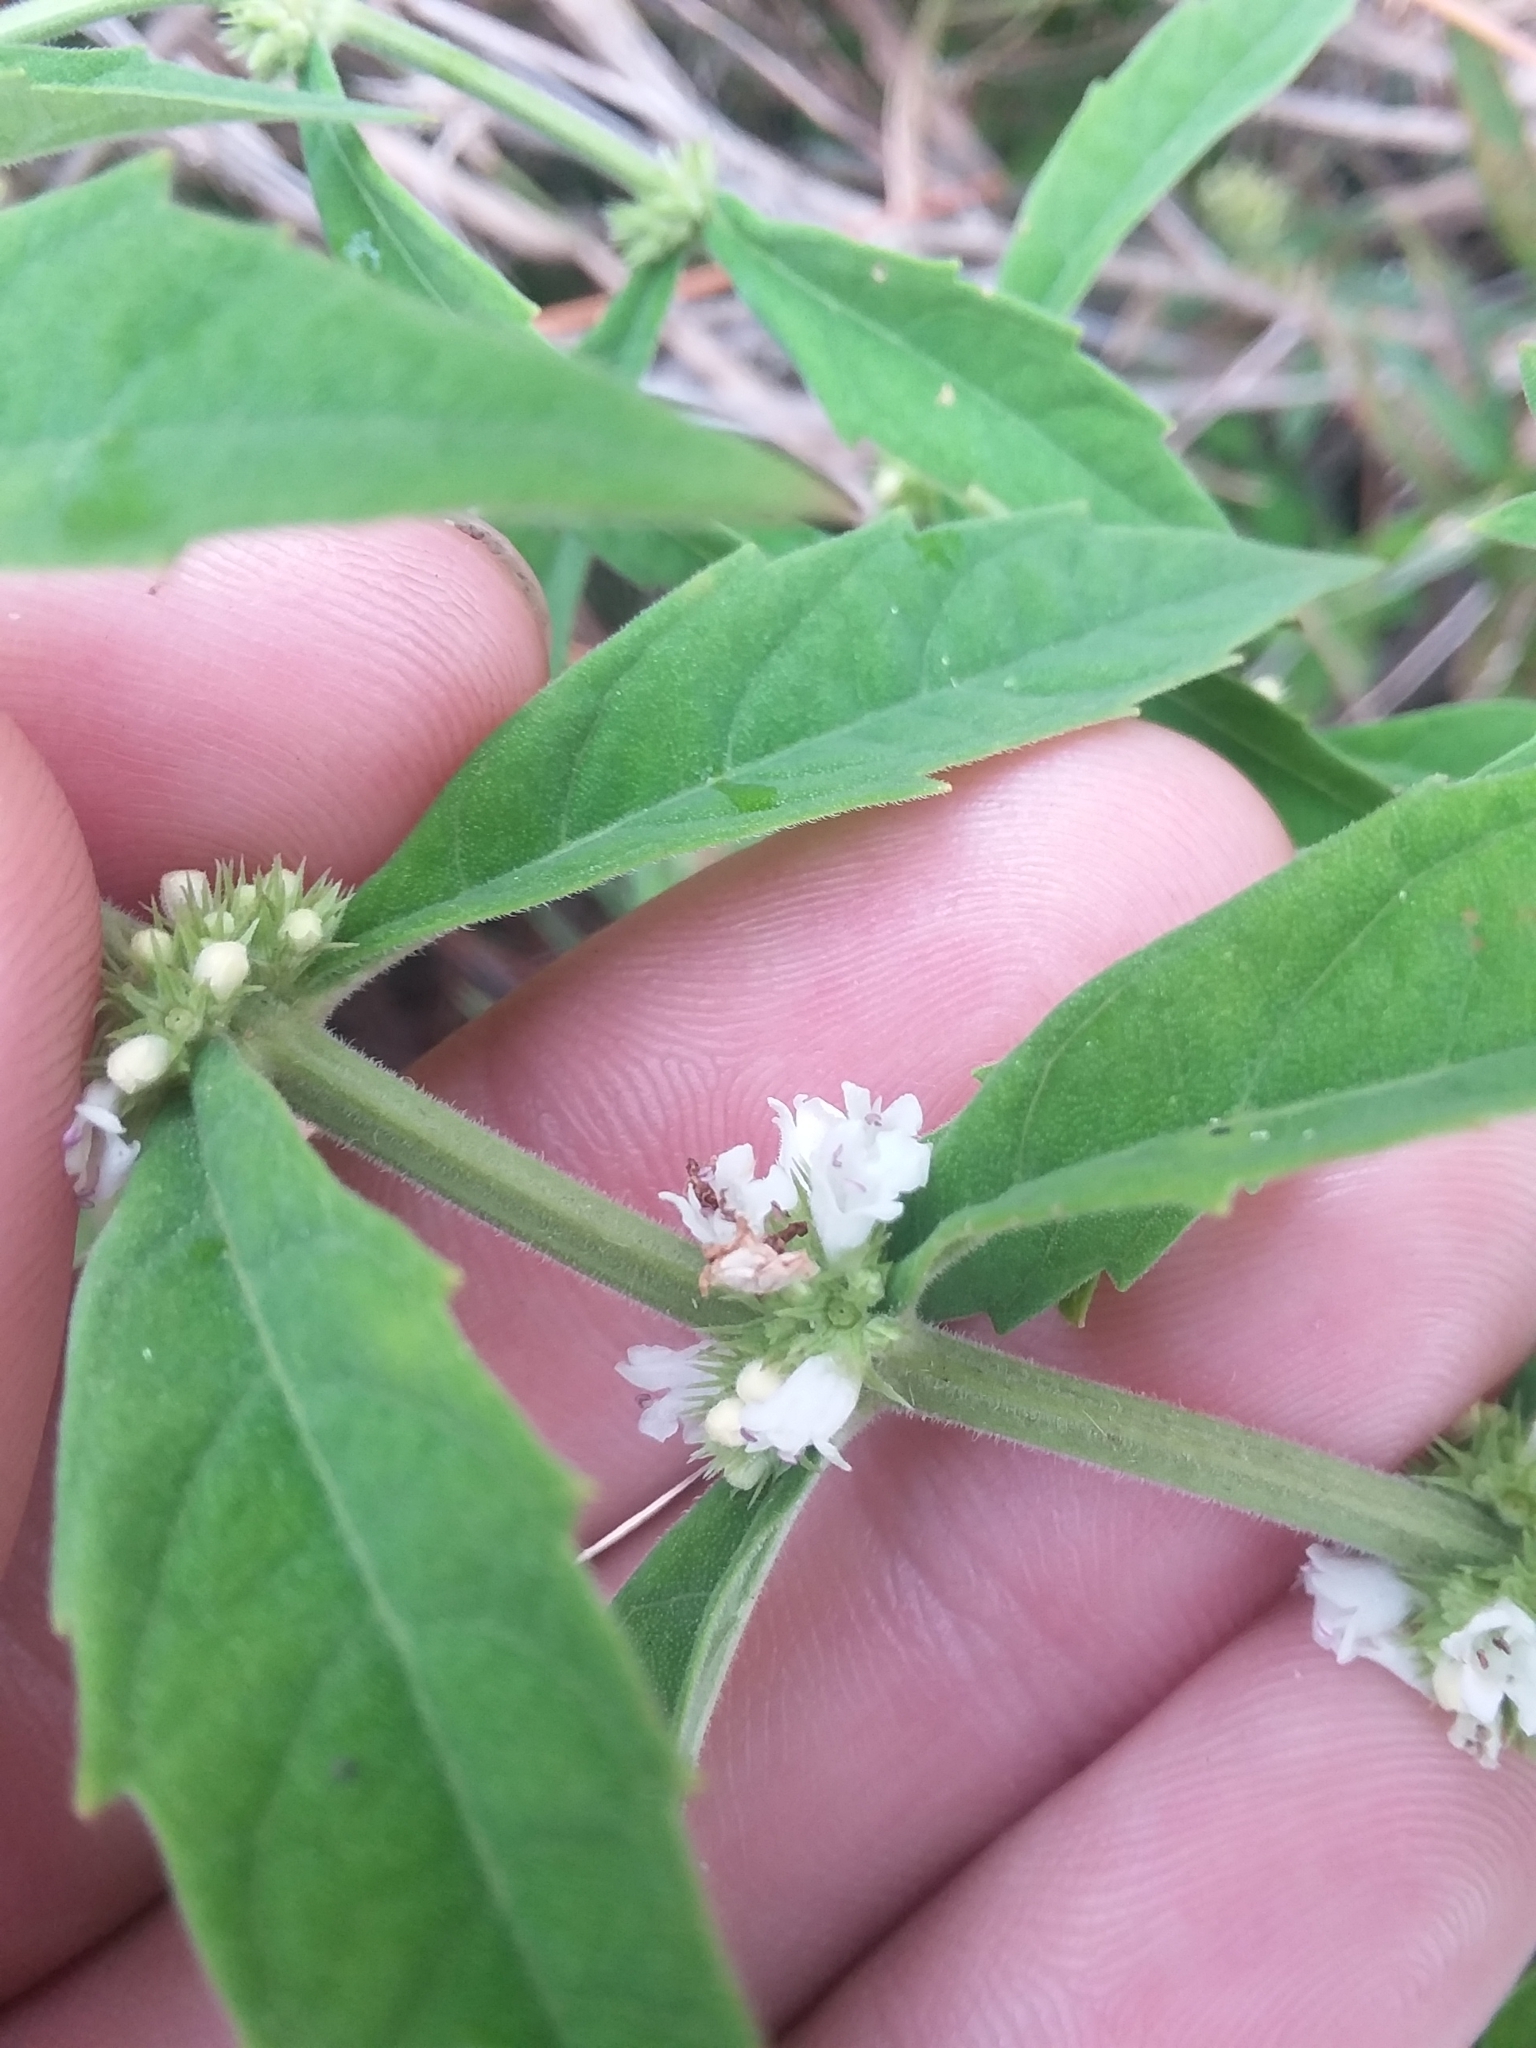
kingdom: Plantae
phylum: Tracheophyta
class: Magnoliopsida
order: Lamiales
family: Lamiaceae
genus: Lycopus
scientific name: Lycopus angustifolius
